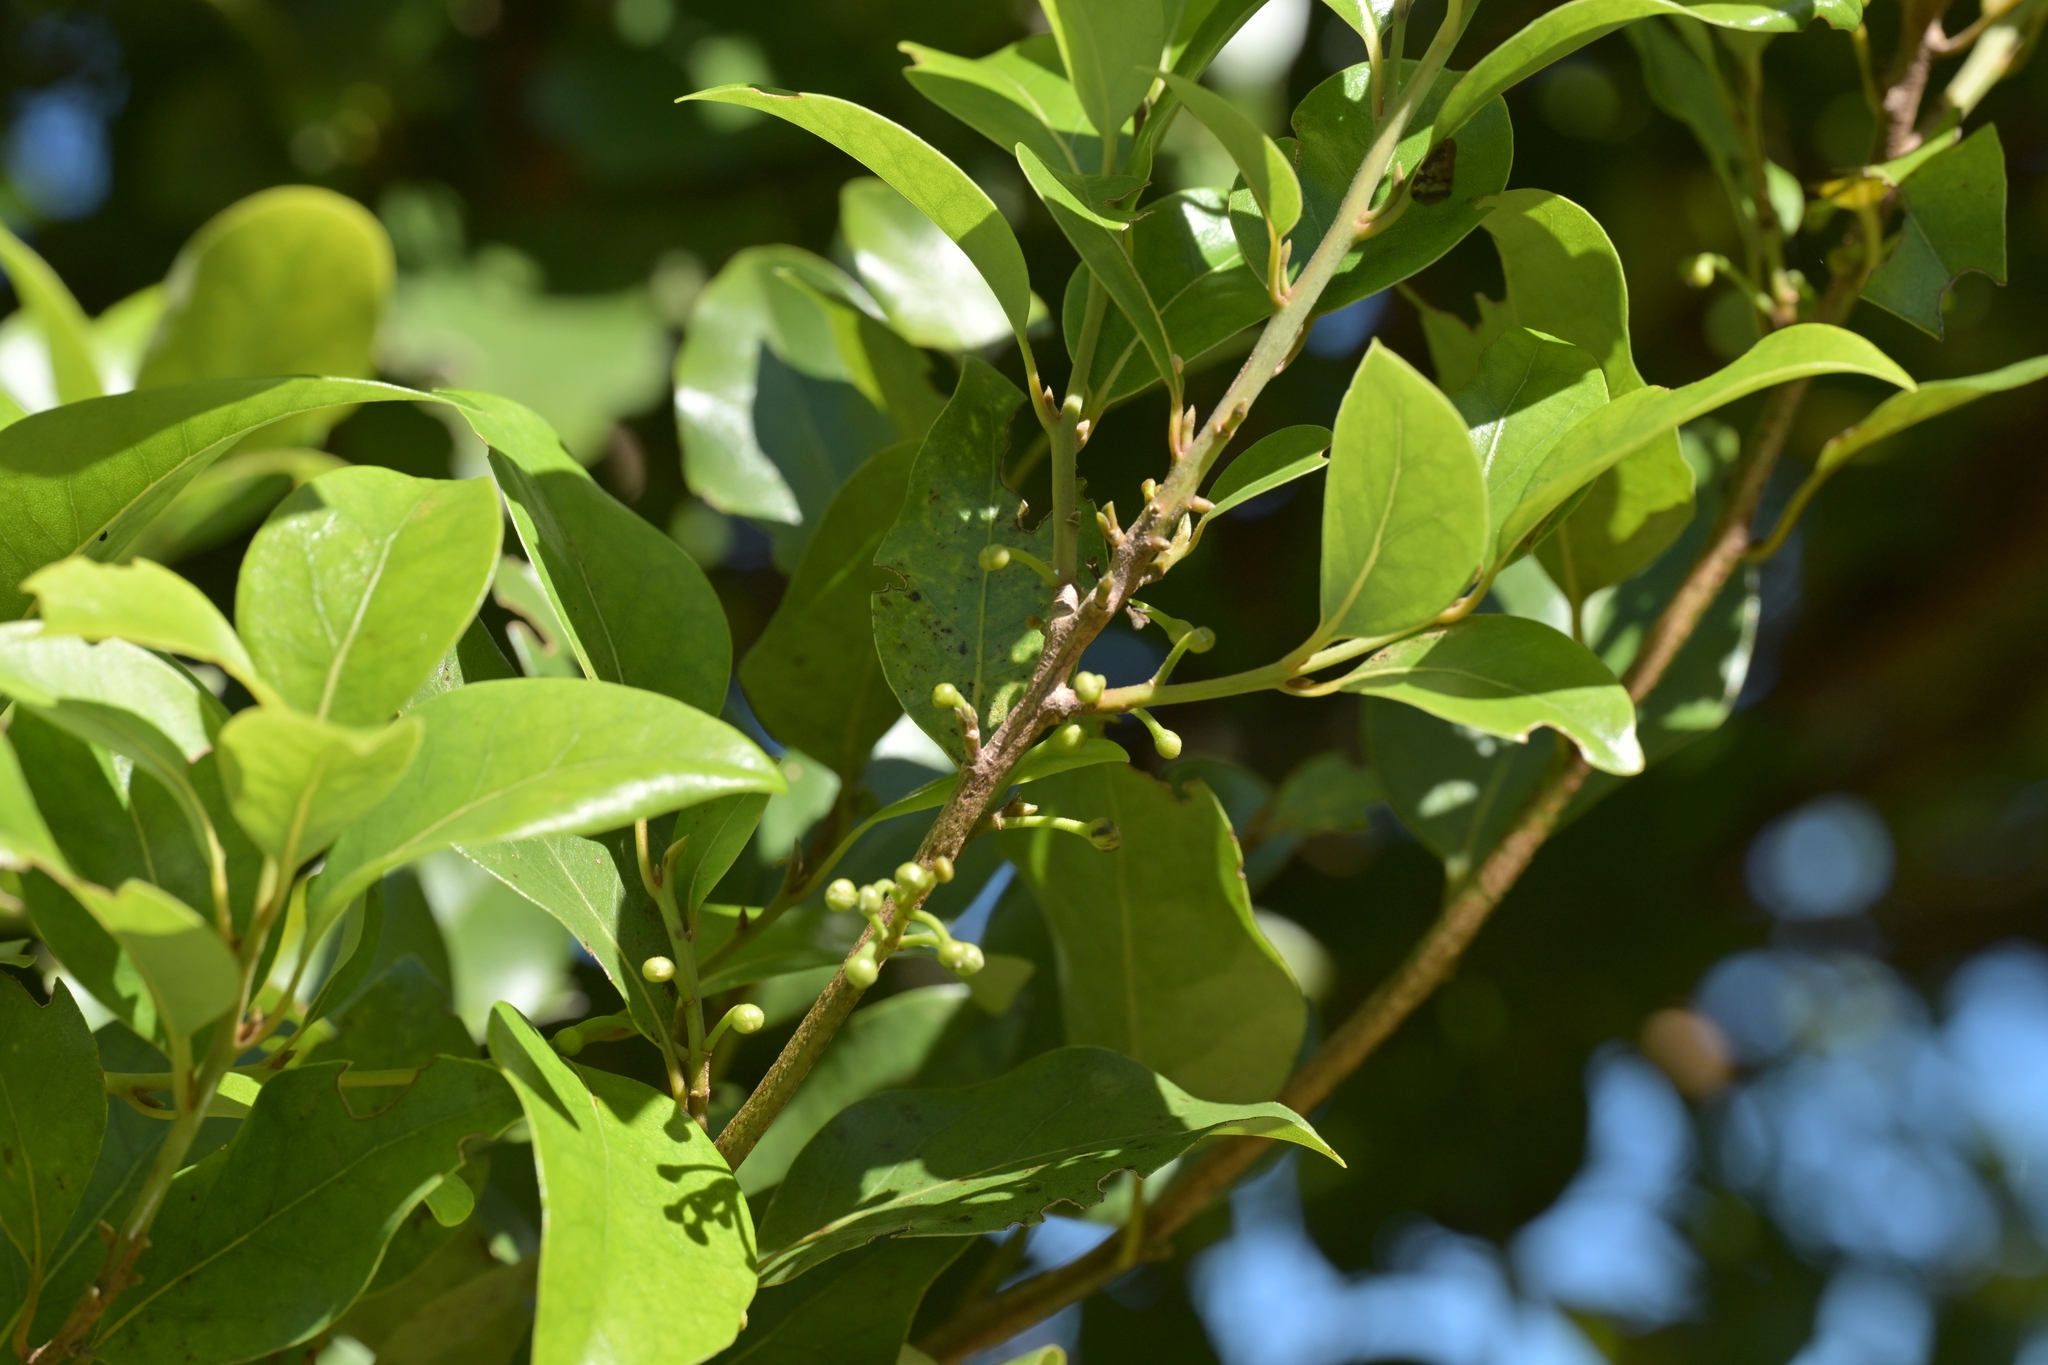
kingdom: Plantae
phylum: Tracheophyta
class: Magnoliopsida
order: Laurales
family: Lauraceae
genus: Litsea
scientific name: Litsea calicaris
